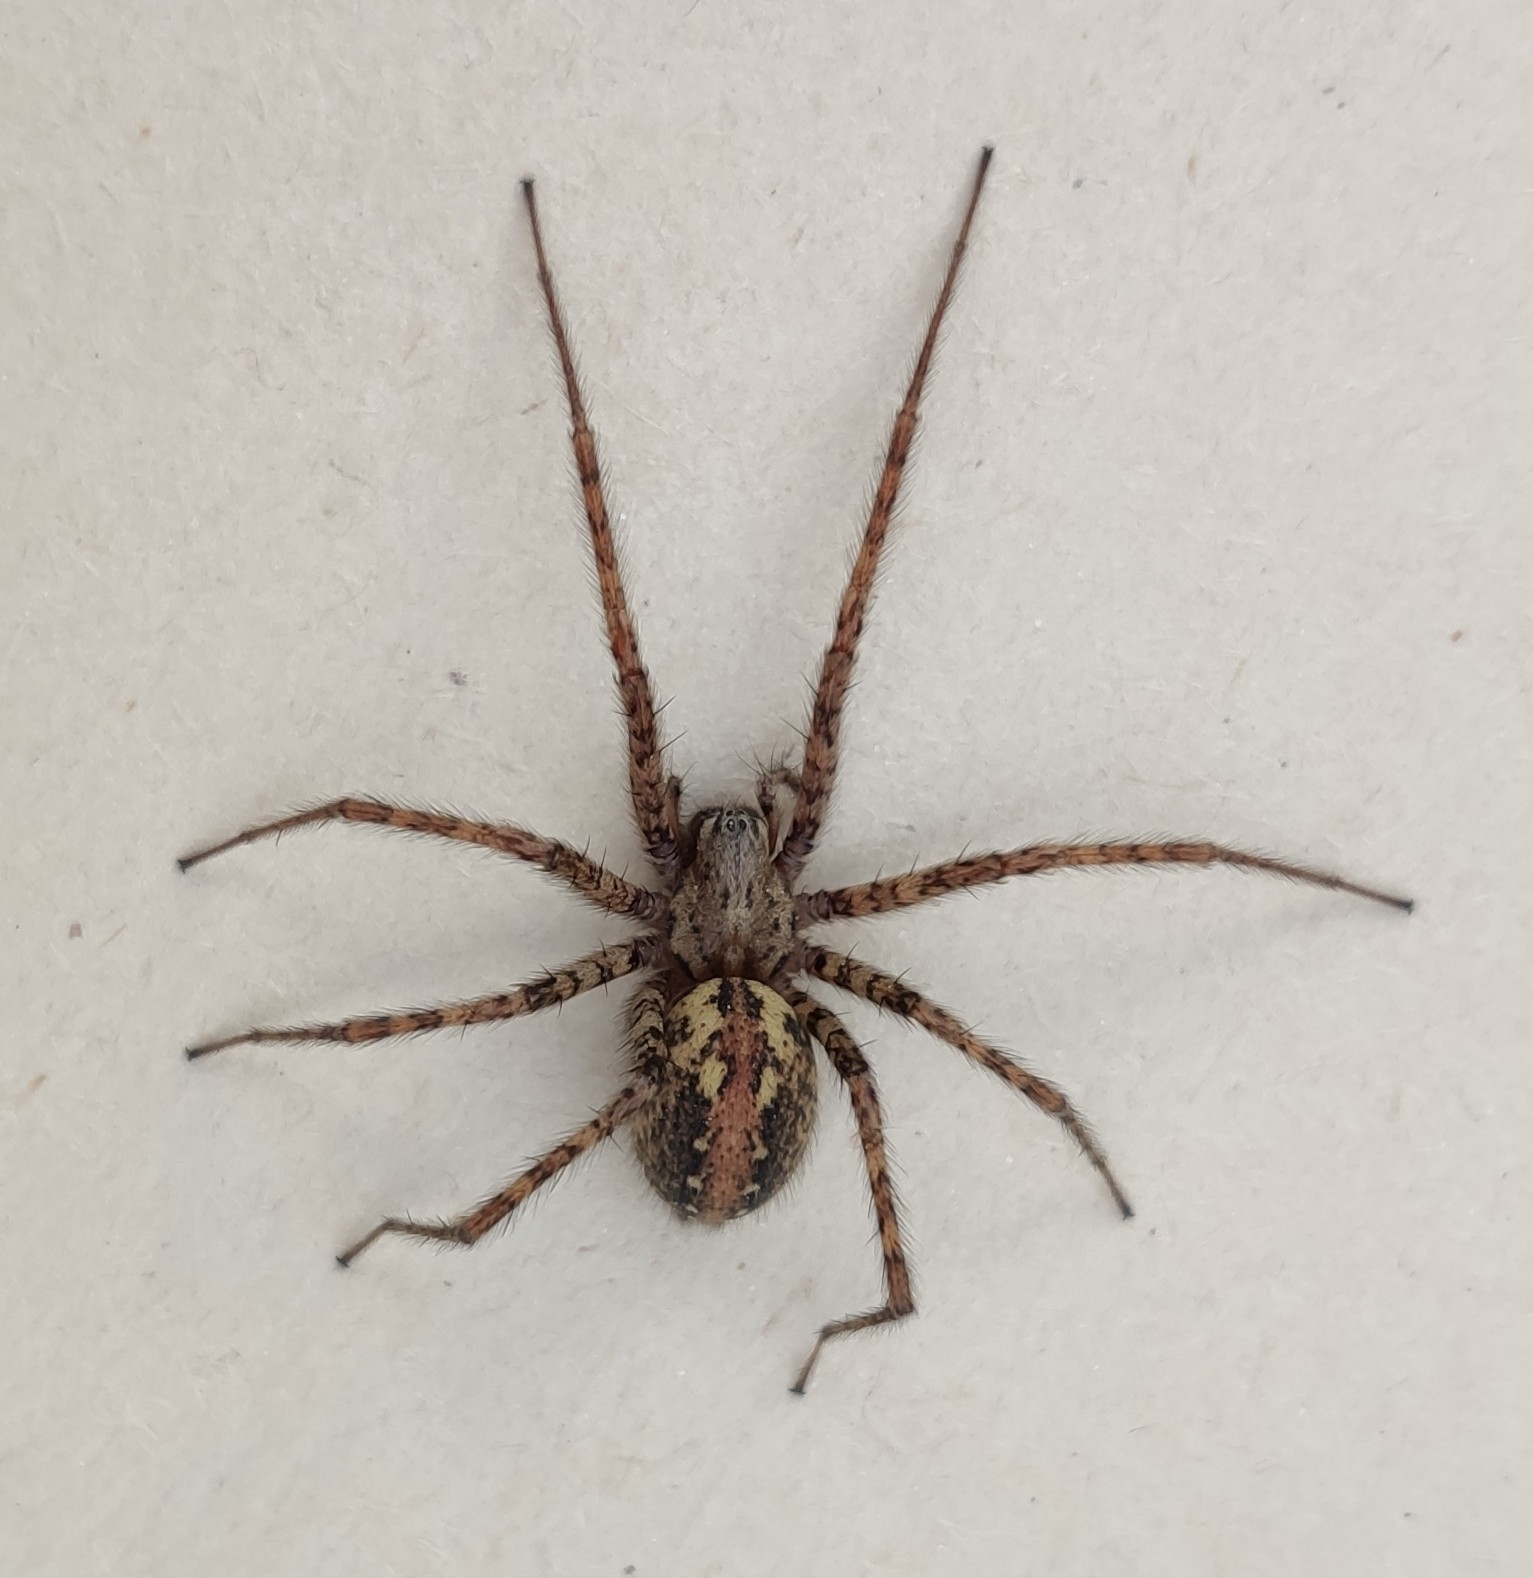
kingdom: Animalia
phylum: Arthropoda
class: Arachnida
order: Araneae
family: Agelenidae
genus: Tegenaria
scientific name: Tegenaria ferruginea
